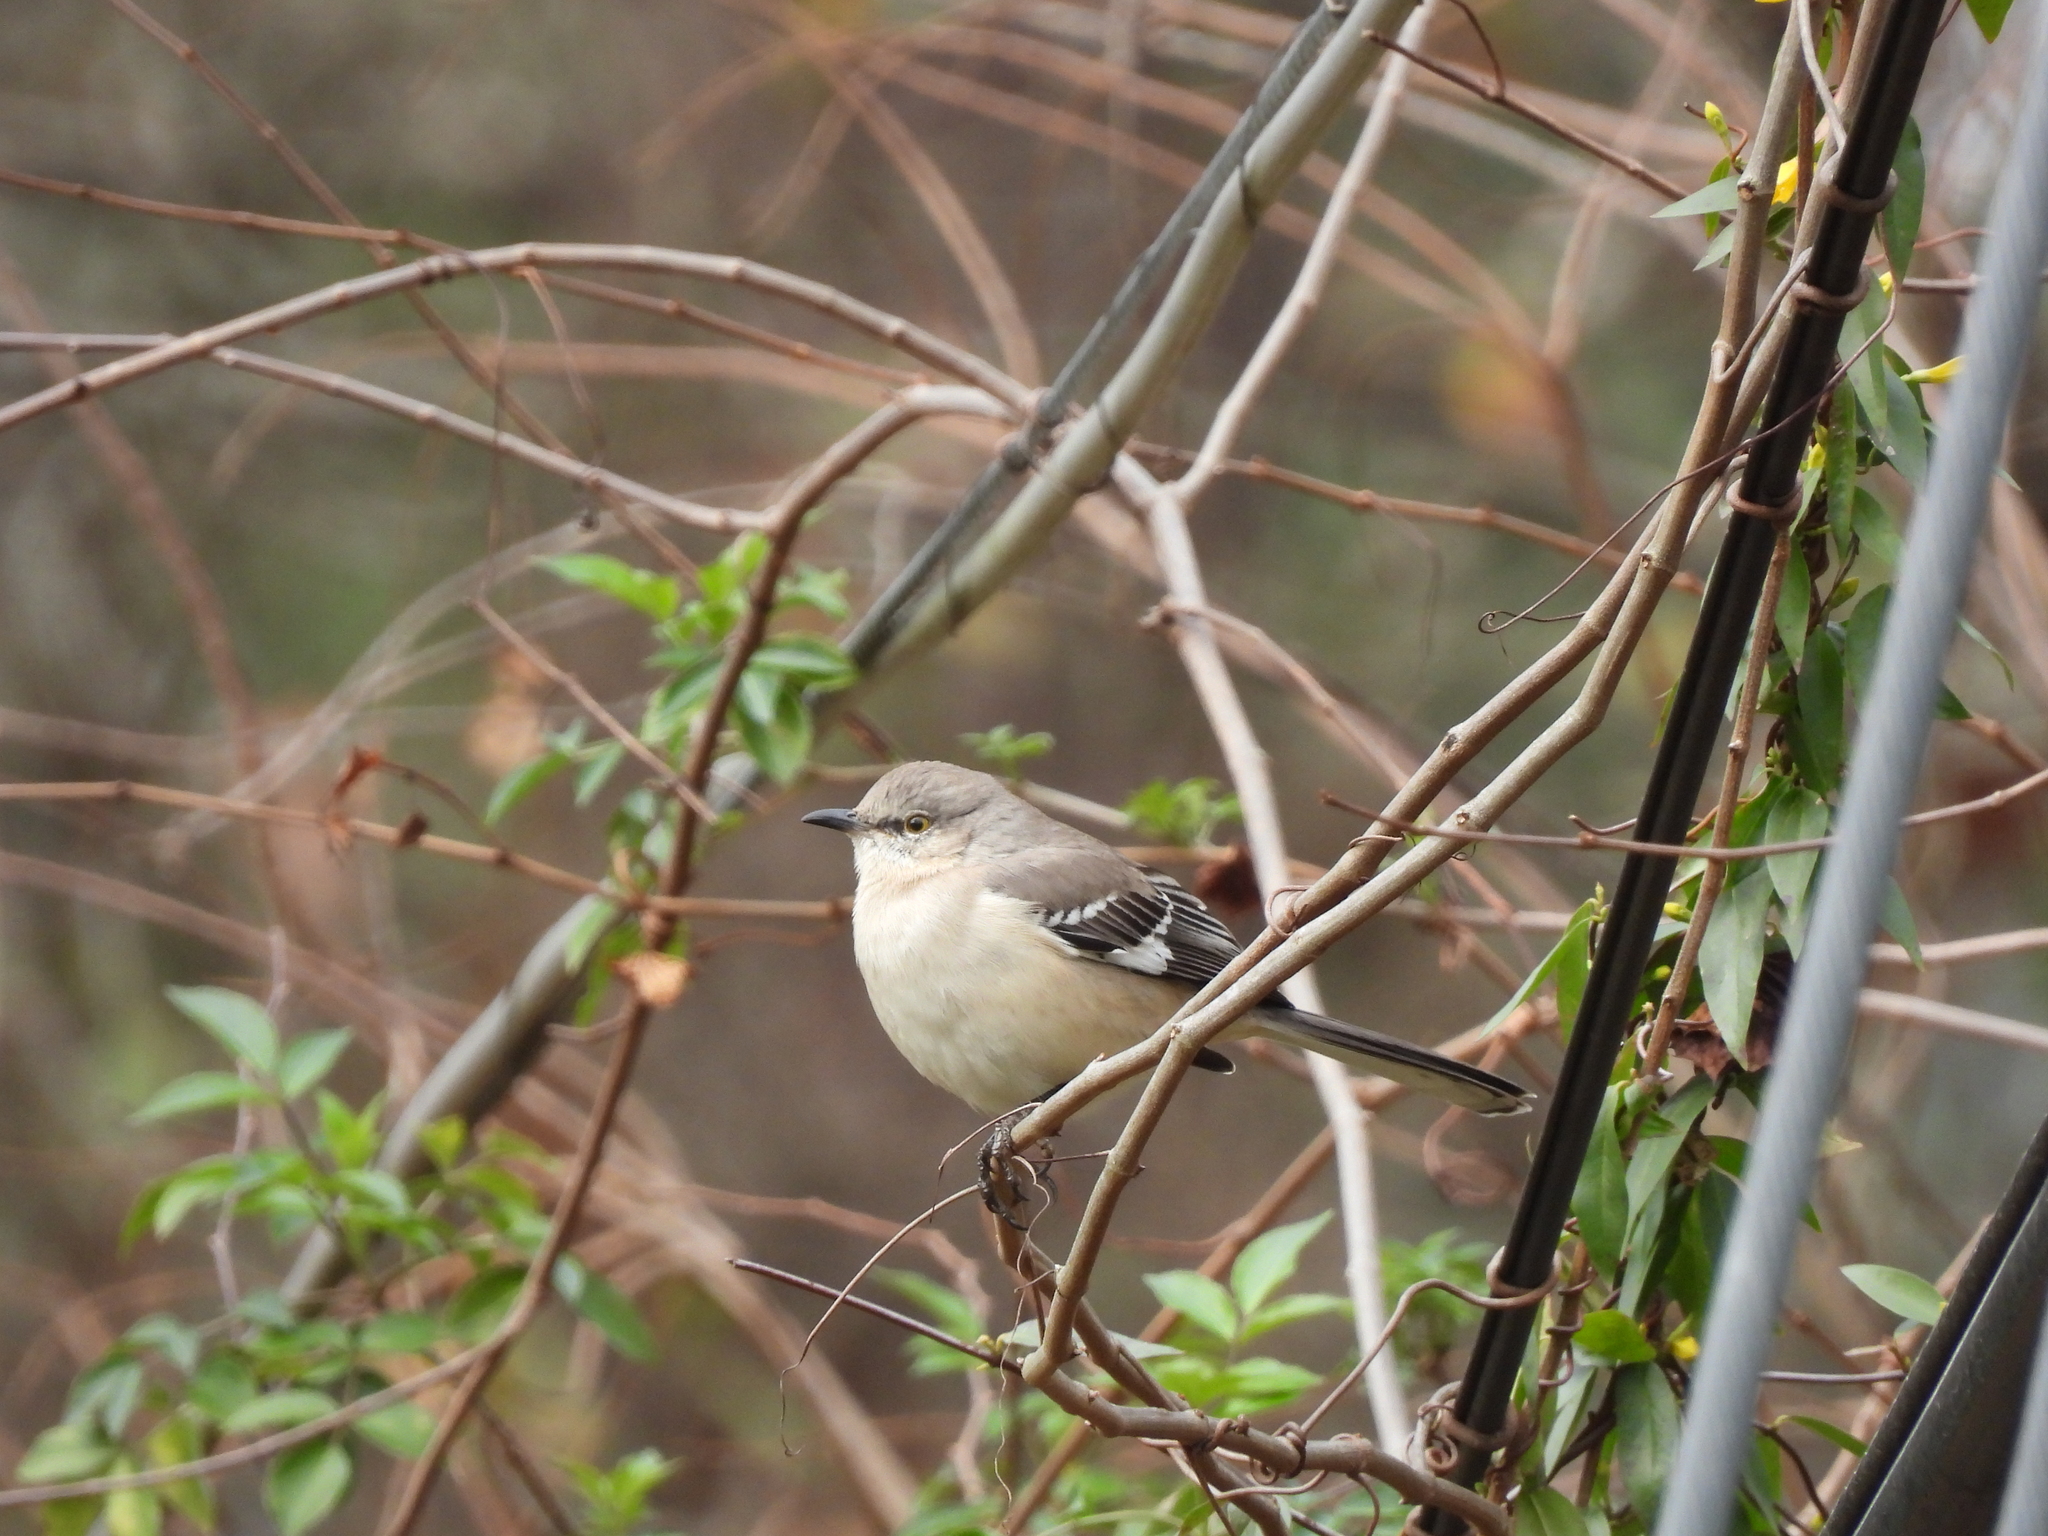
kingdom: Animalia
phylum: Chordata
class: Aves
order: Passeriformes
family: Mimidae
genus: Mimus
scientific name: Mimus polyglottos
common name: Northern mockingbird
